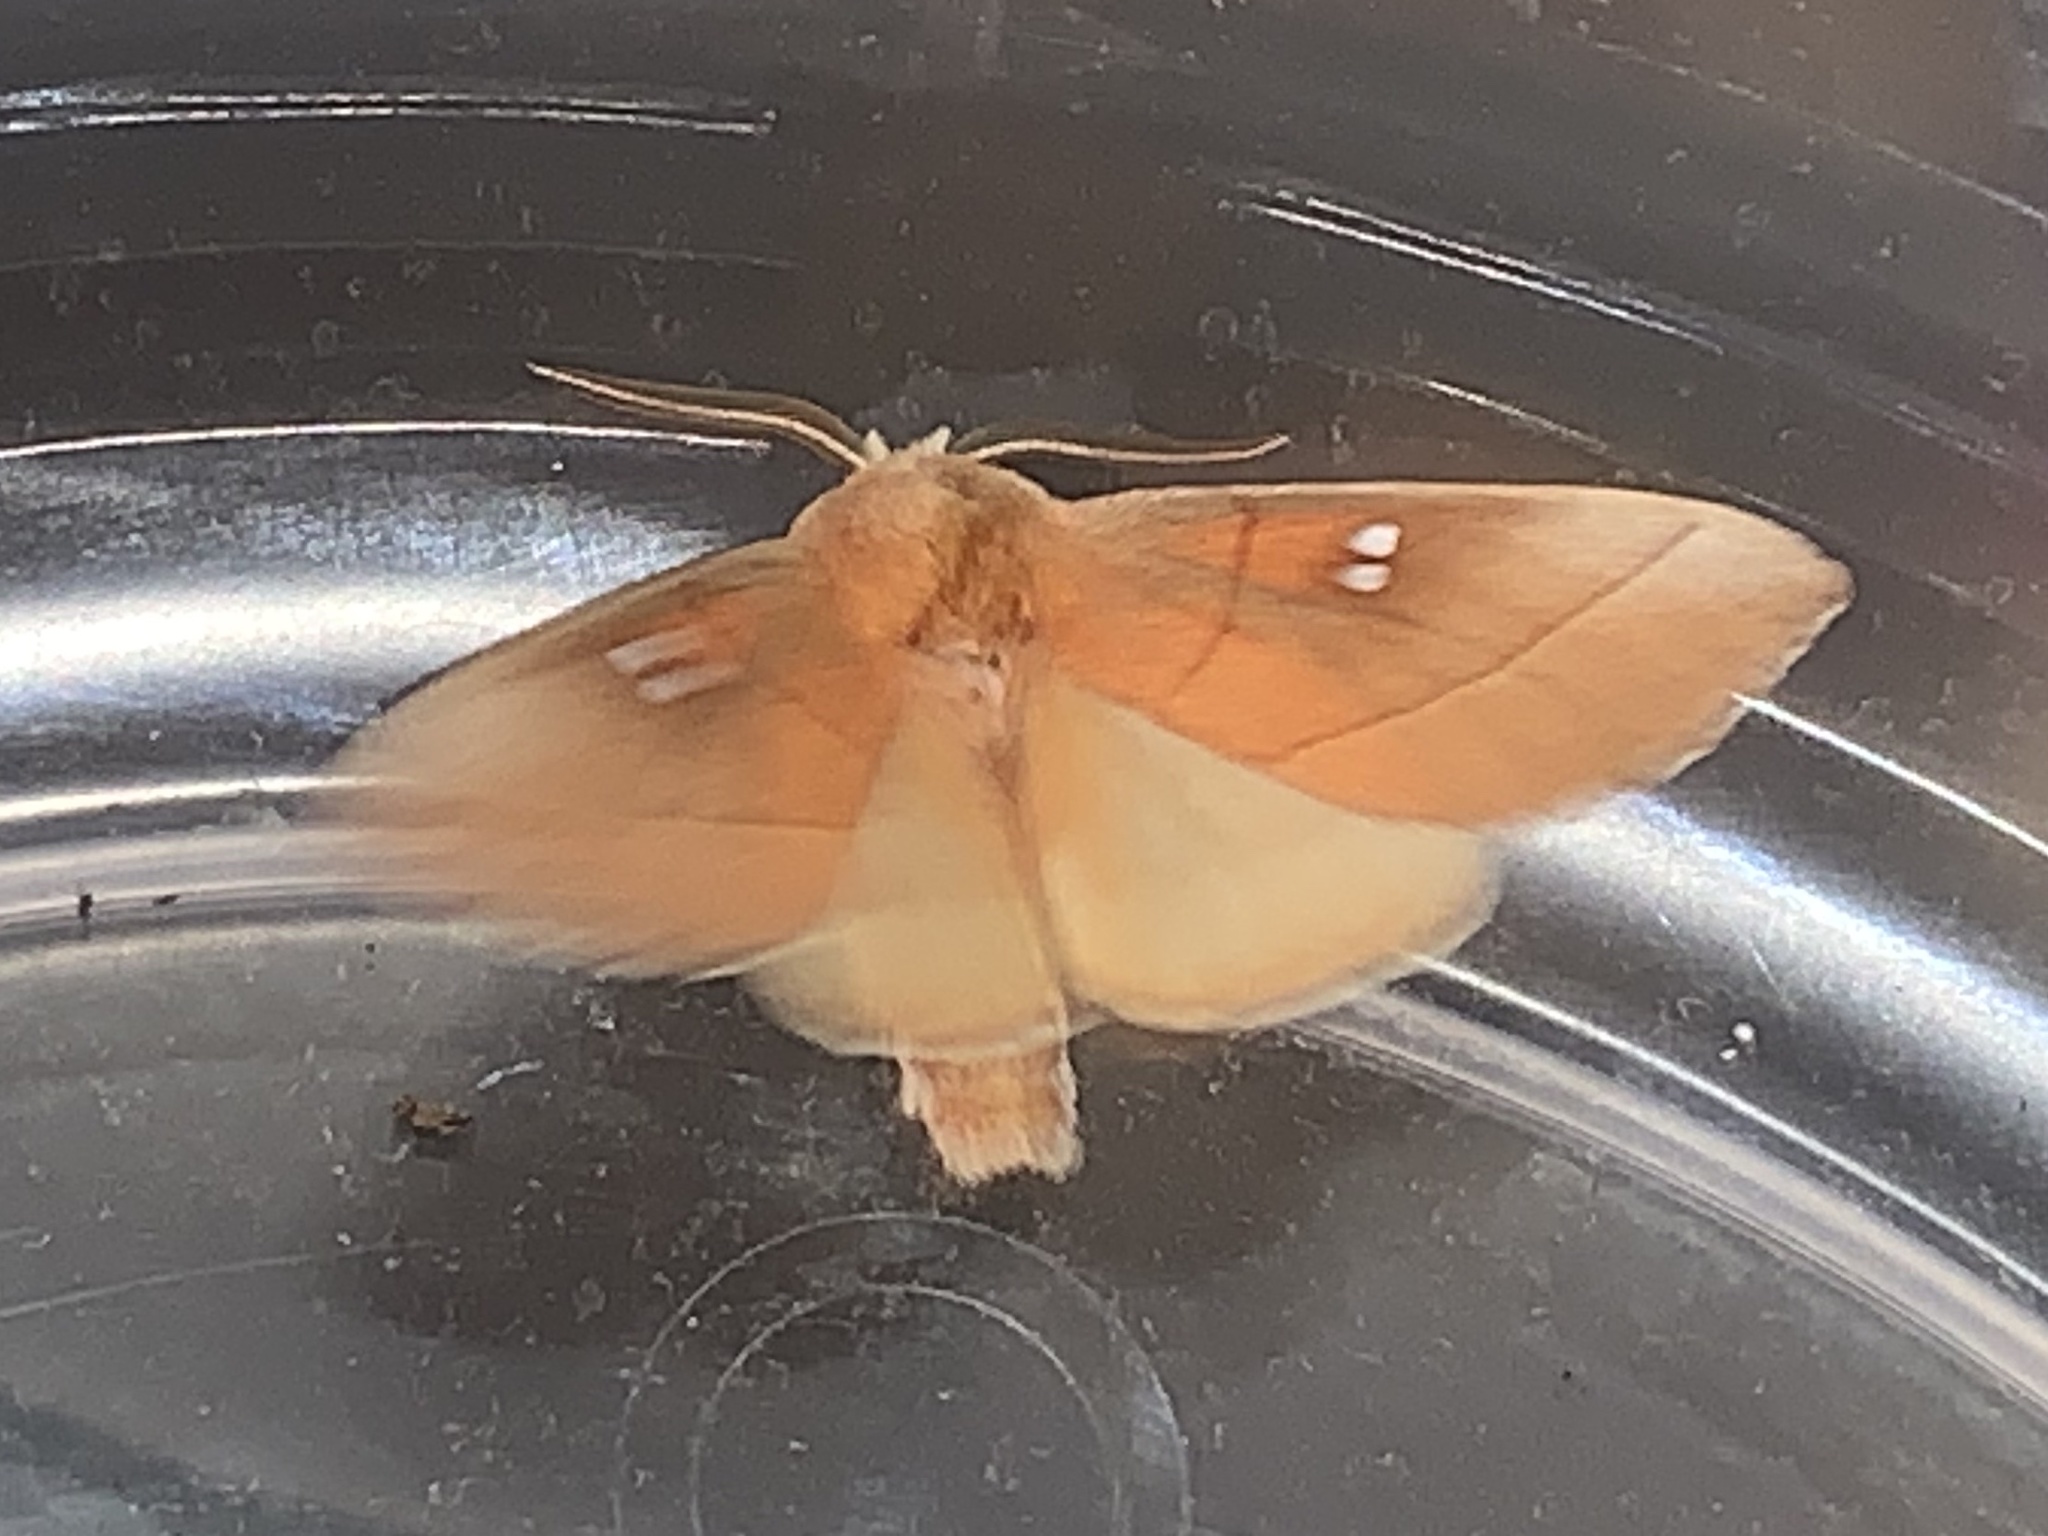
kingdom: Animalia
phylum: Arthropoda
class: Insecta
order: Lepidoptera
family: Notodontidae
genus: Nadata
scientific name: Nadata gibbosa
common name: White-dotted prominent
